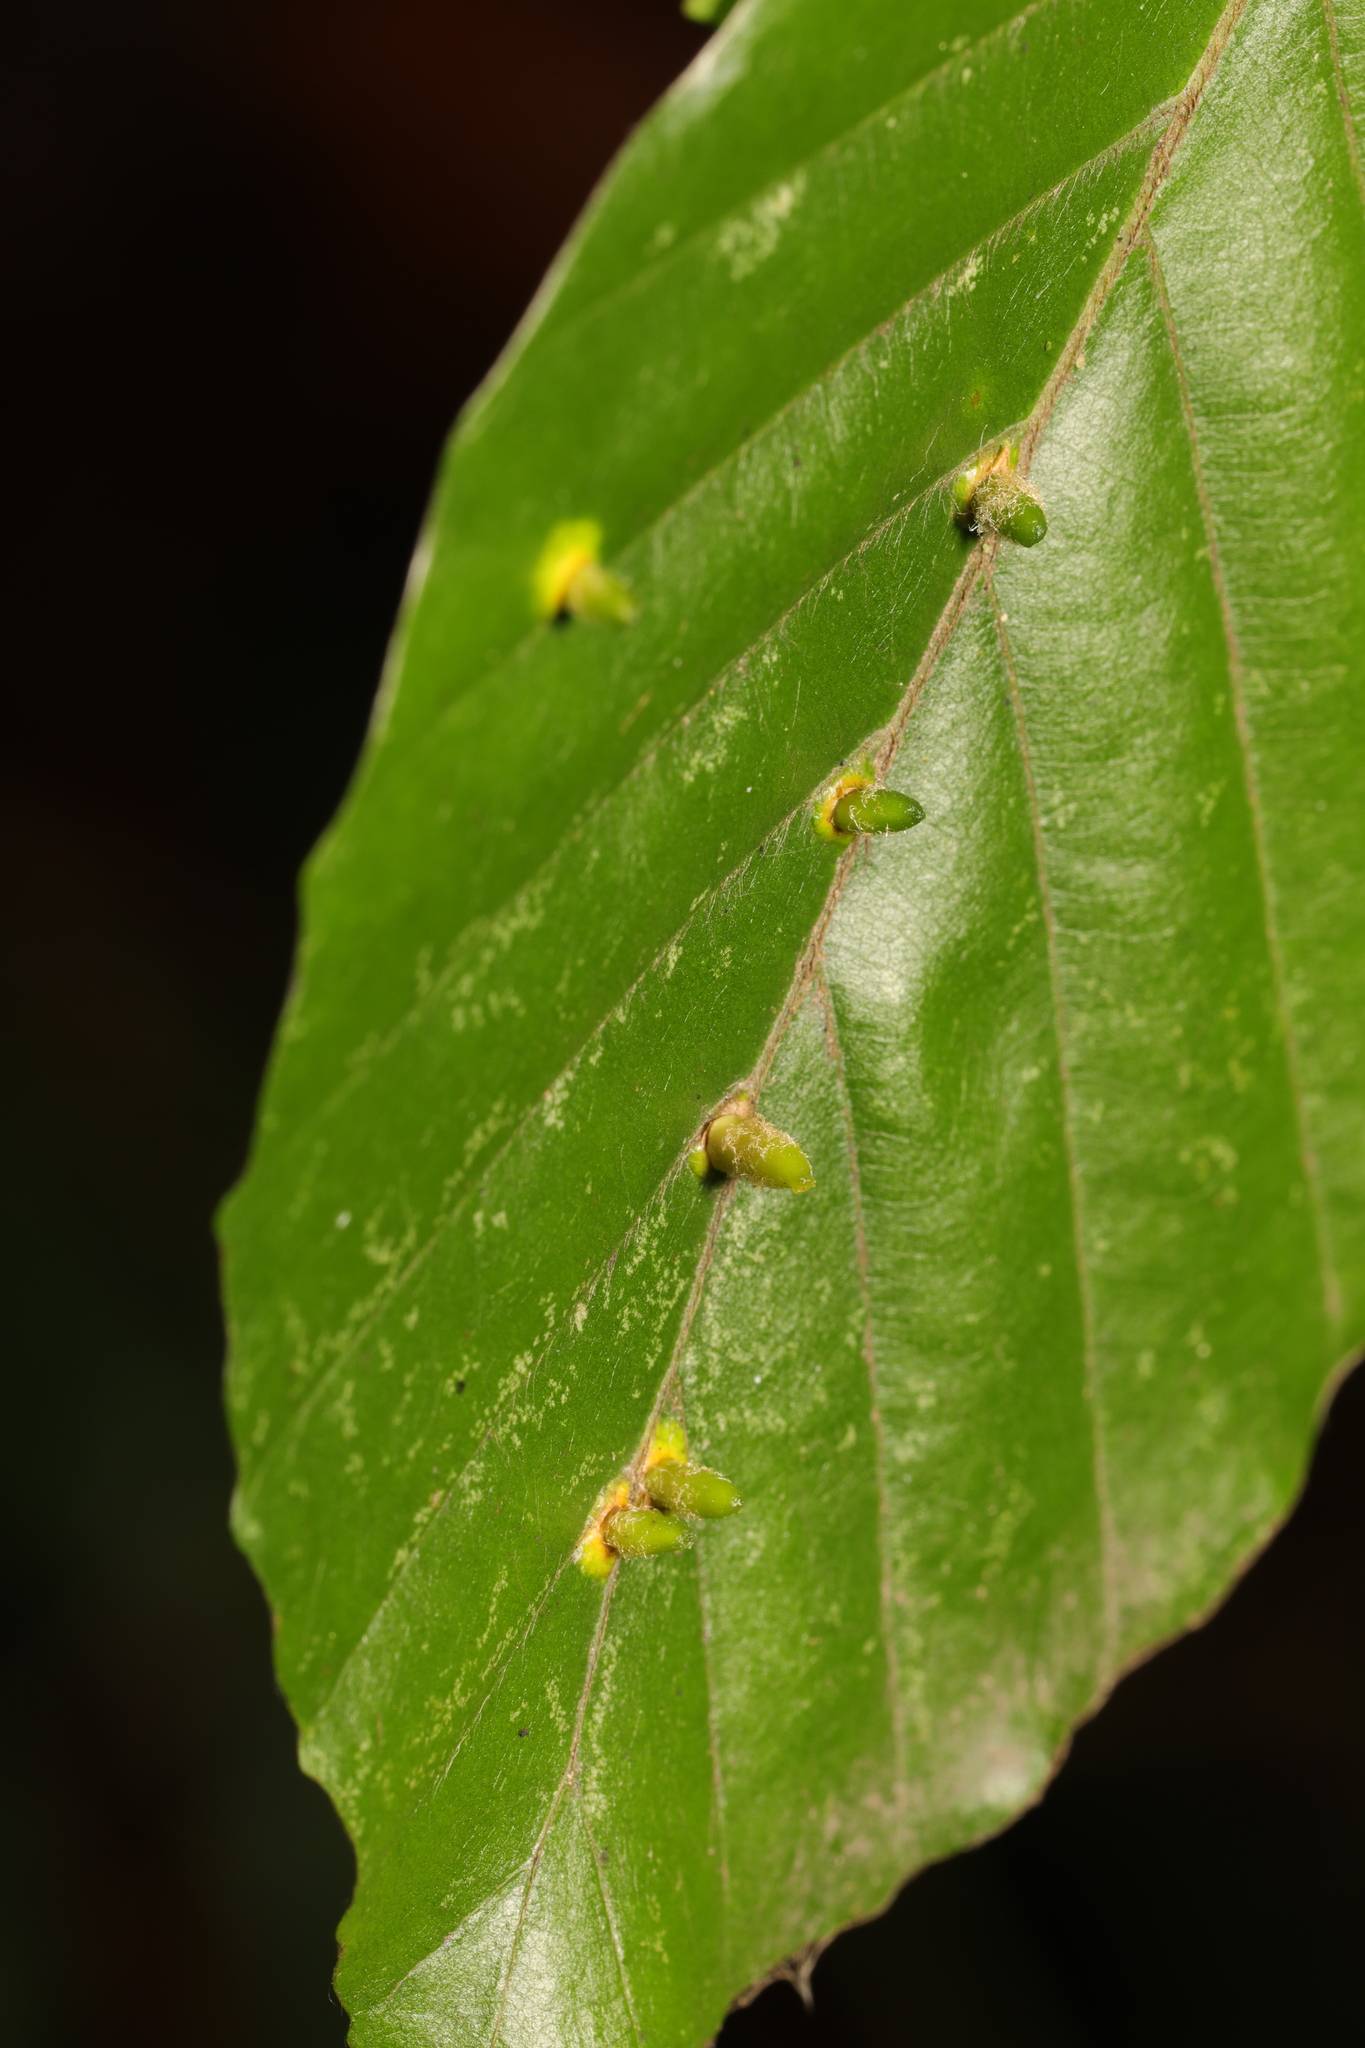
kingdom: Animalia
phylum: Arthropoda
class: Insecta
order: Diptera
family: Cecidomyiidae
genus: Hartigiola
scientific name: Hartigiola annulipes
